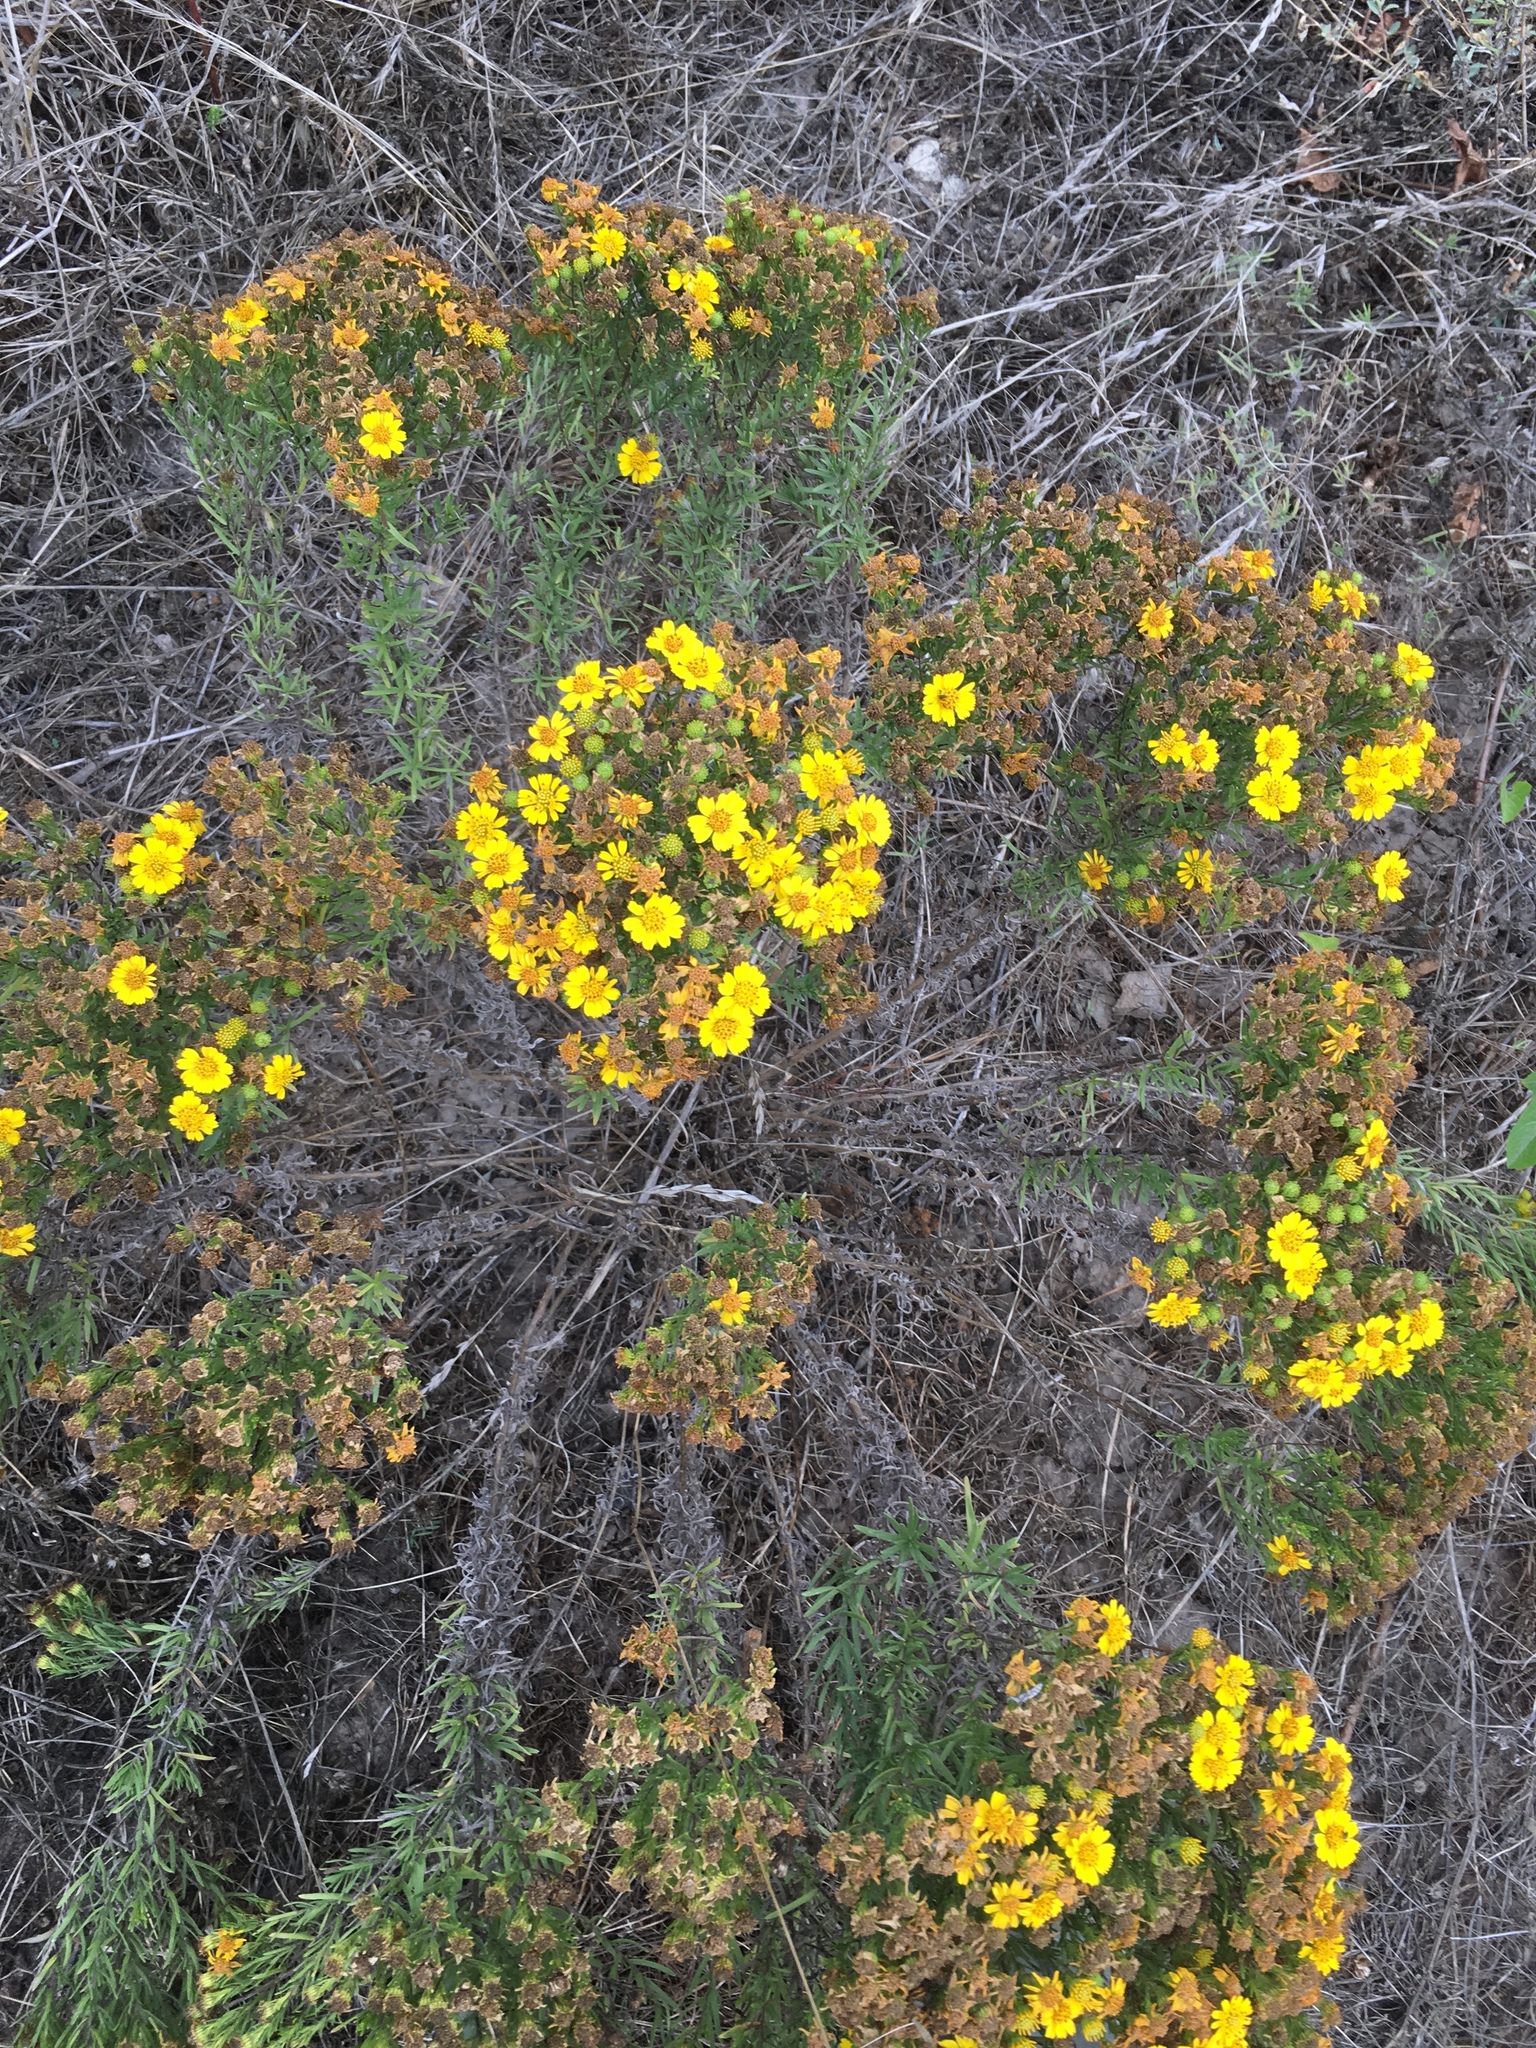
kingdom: Plantae
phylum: Tracheophyta
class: Magnoliopsida
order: Asterales
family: Asteraceae
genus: Deinandra
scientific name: Deinandra clementina
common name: Island tarplant
